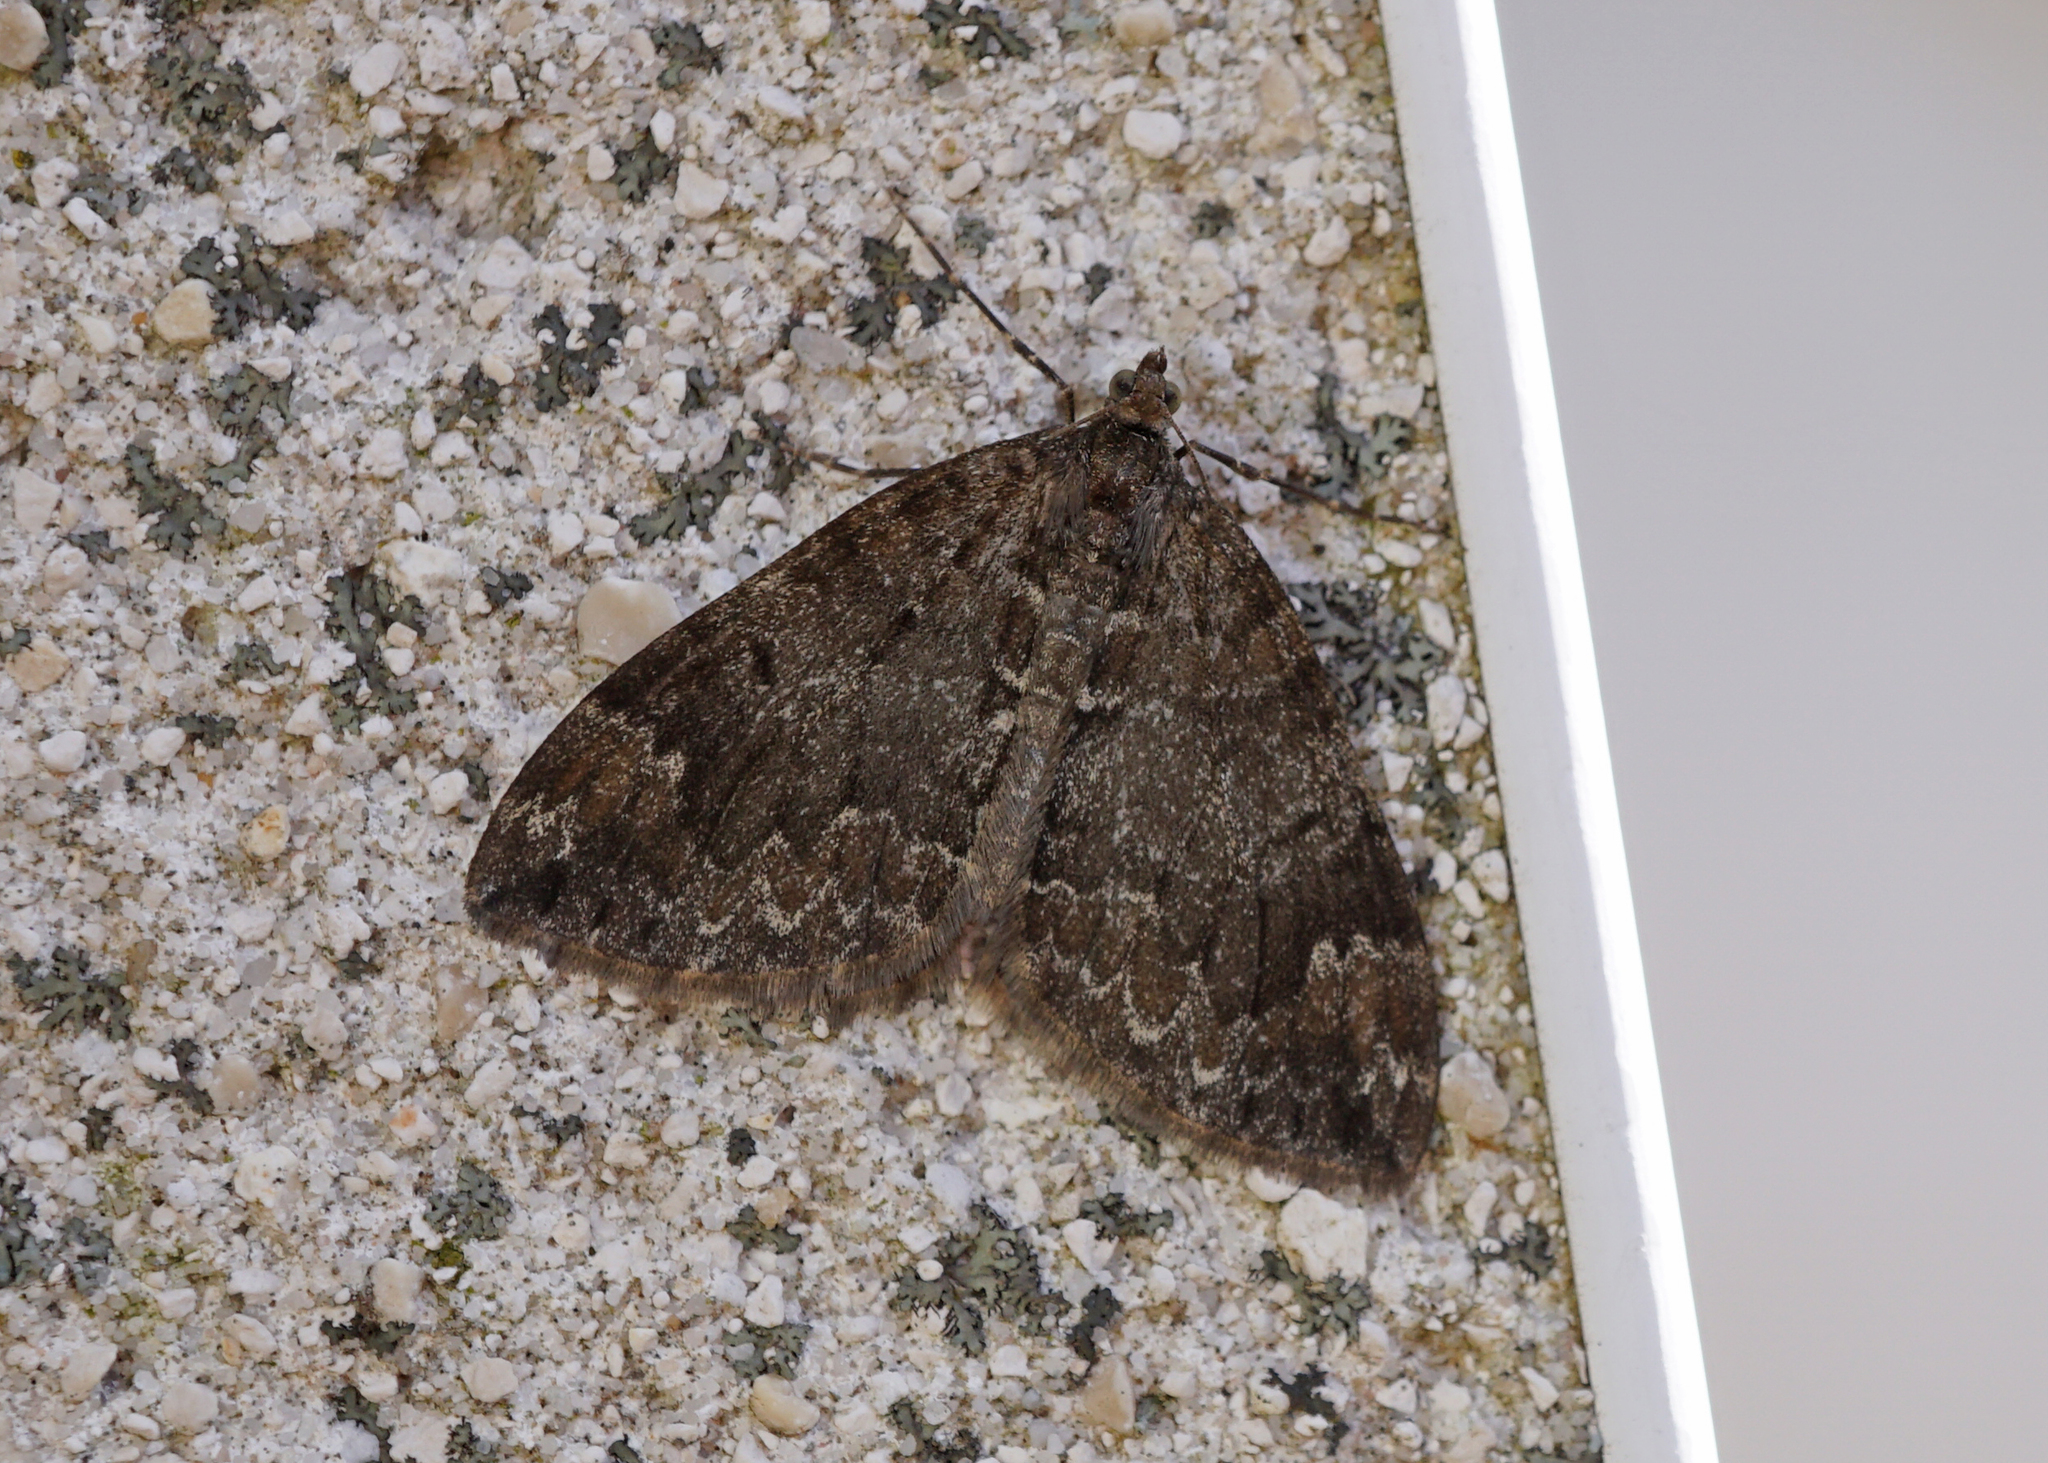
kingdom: Animalia
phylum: Arthropoda
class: Insecta
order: Lepidoptera
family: Geometridae
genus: Dysstroma
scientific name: Dysstroma truncata
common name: Common marbled carpet
